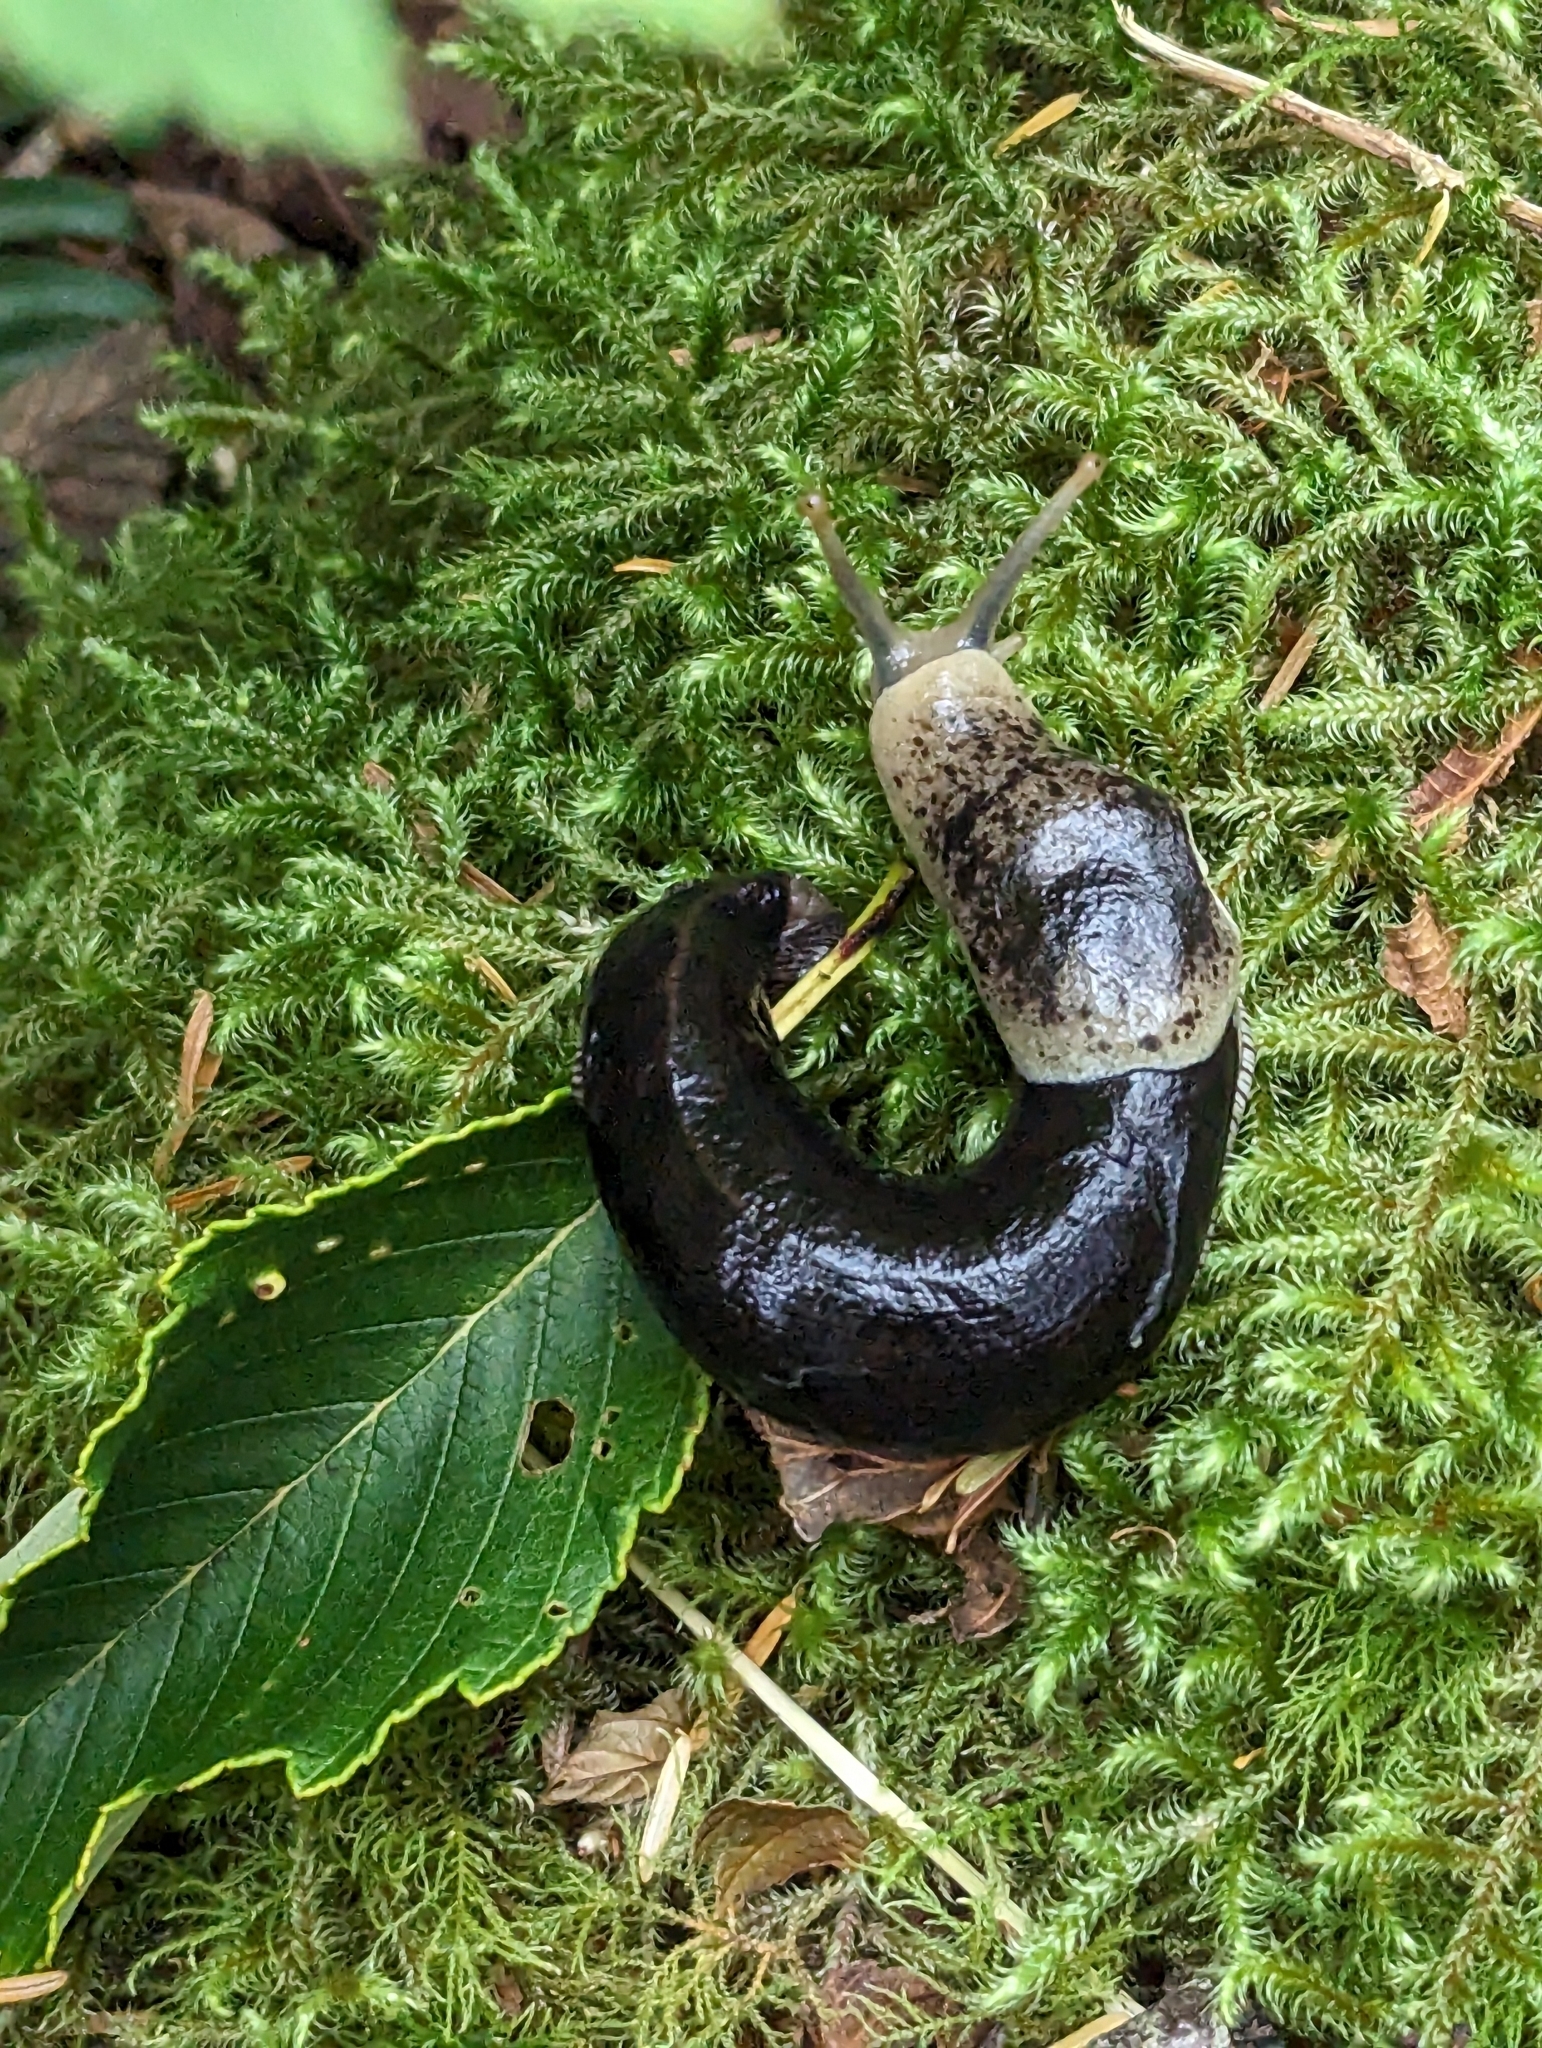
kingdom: Animalia
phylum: Mollusca
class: Gastropoda
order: Stylommatophora
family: Ariolimacidae
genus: Ariolimax
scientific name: Ariolimax columbianus
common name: Pacific banana slug
